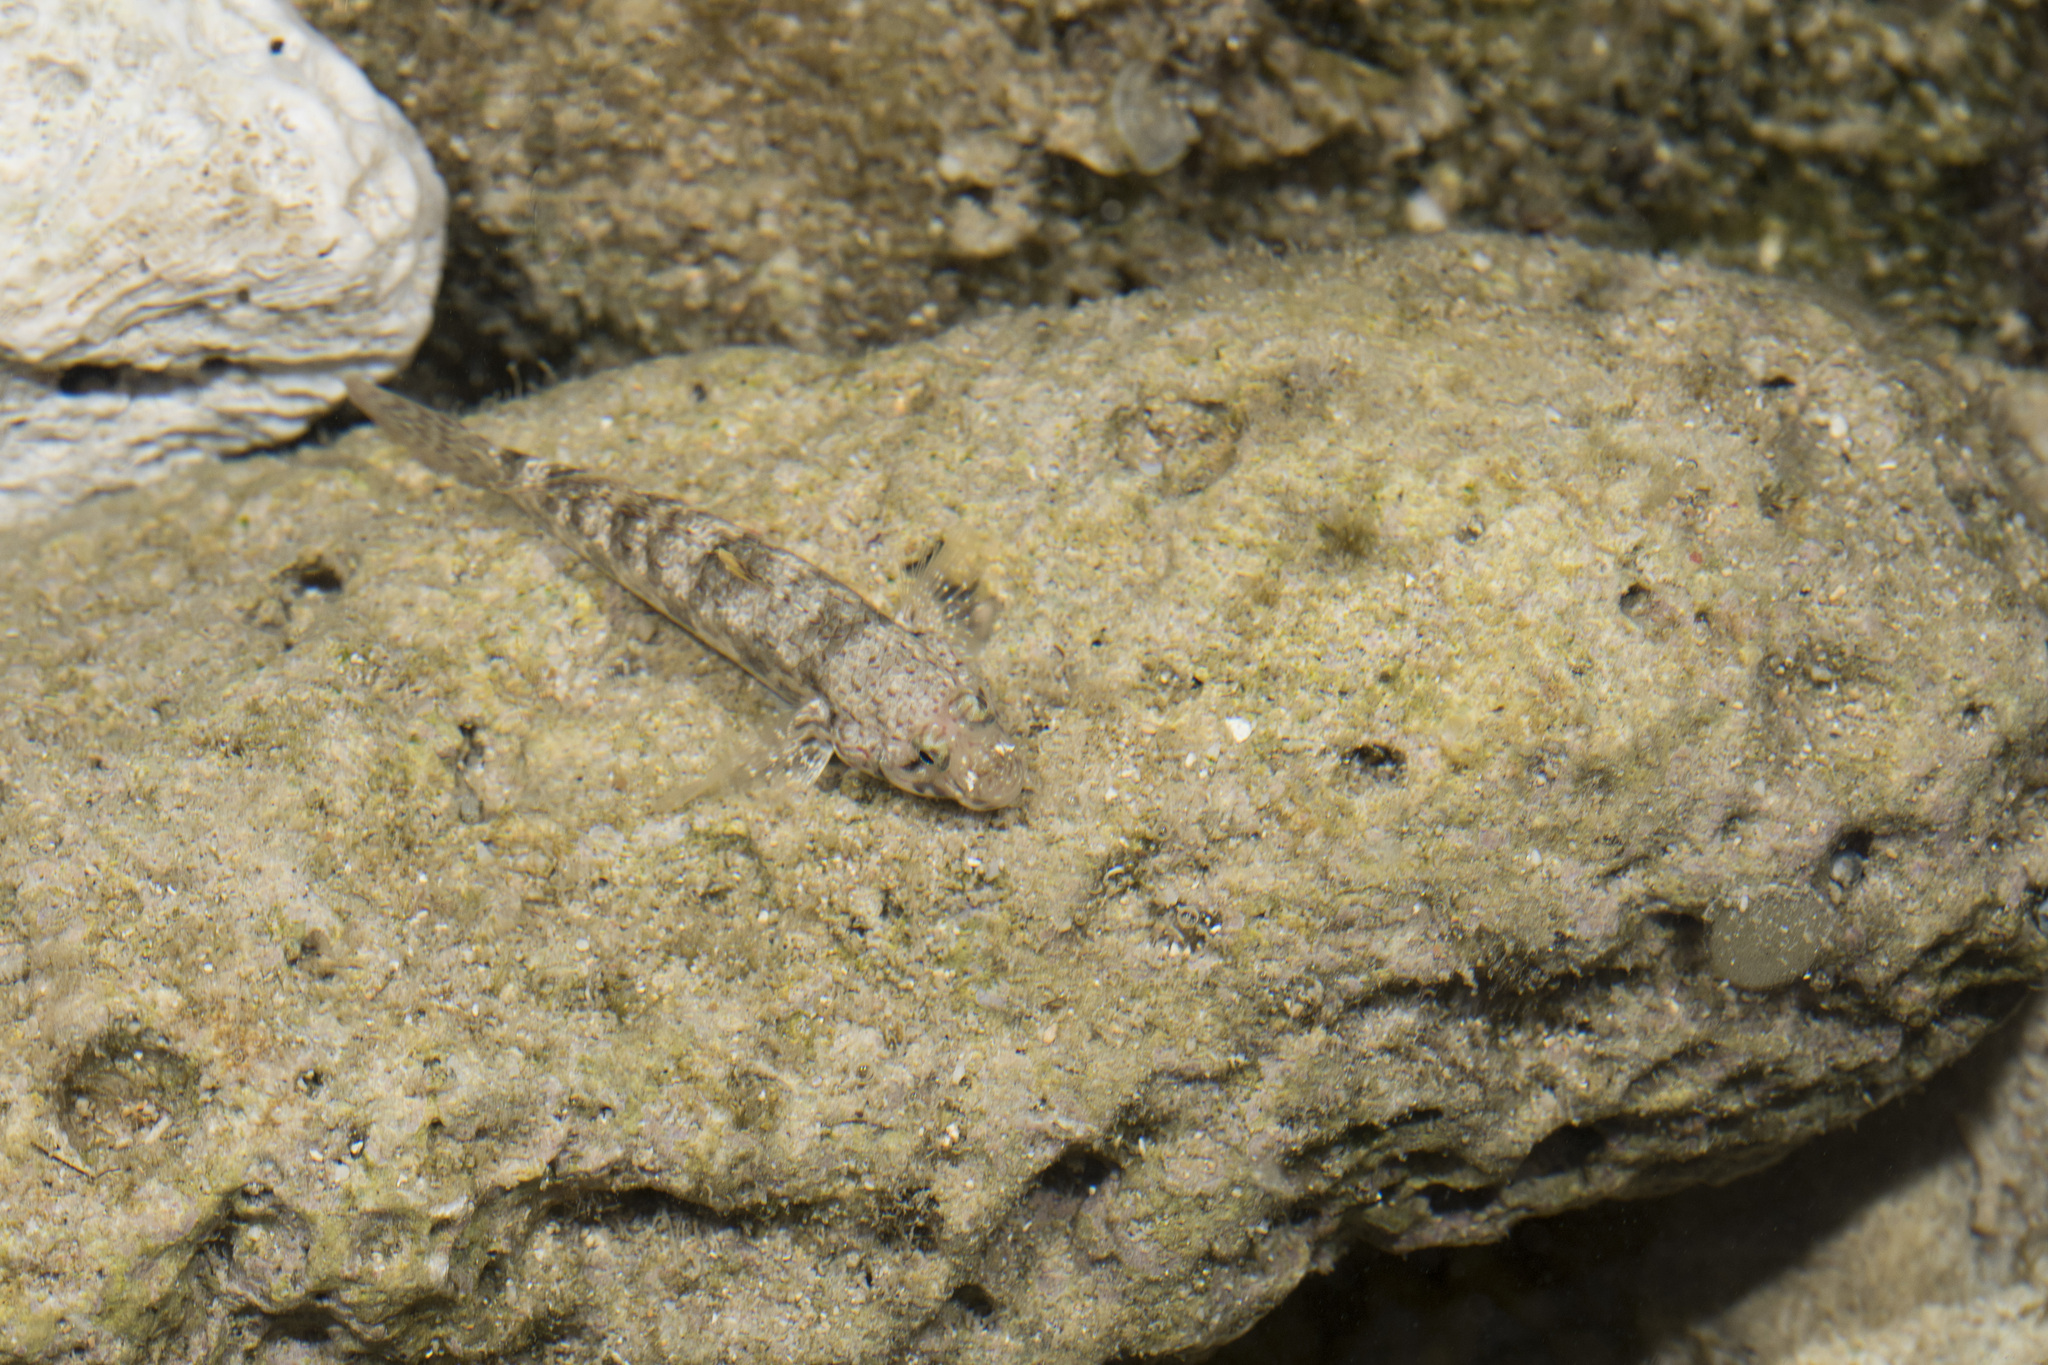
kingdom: Animalia
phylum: Chordata
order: Perciformes
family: Gobiidae
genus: Istigobius
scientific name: Istigobius ornatus
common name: Ornate goby
